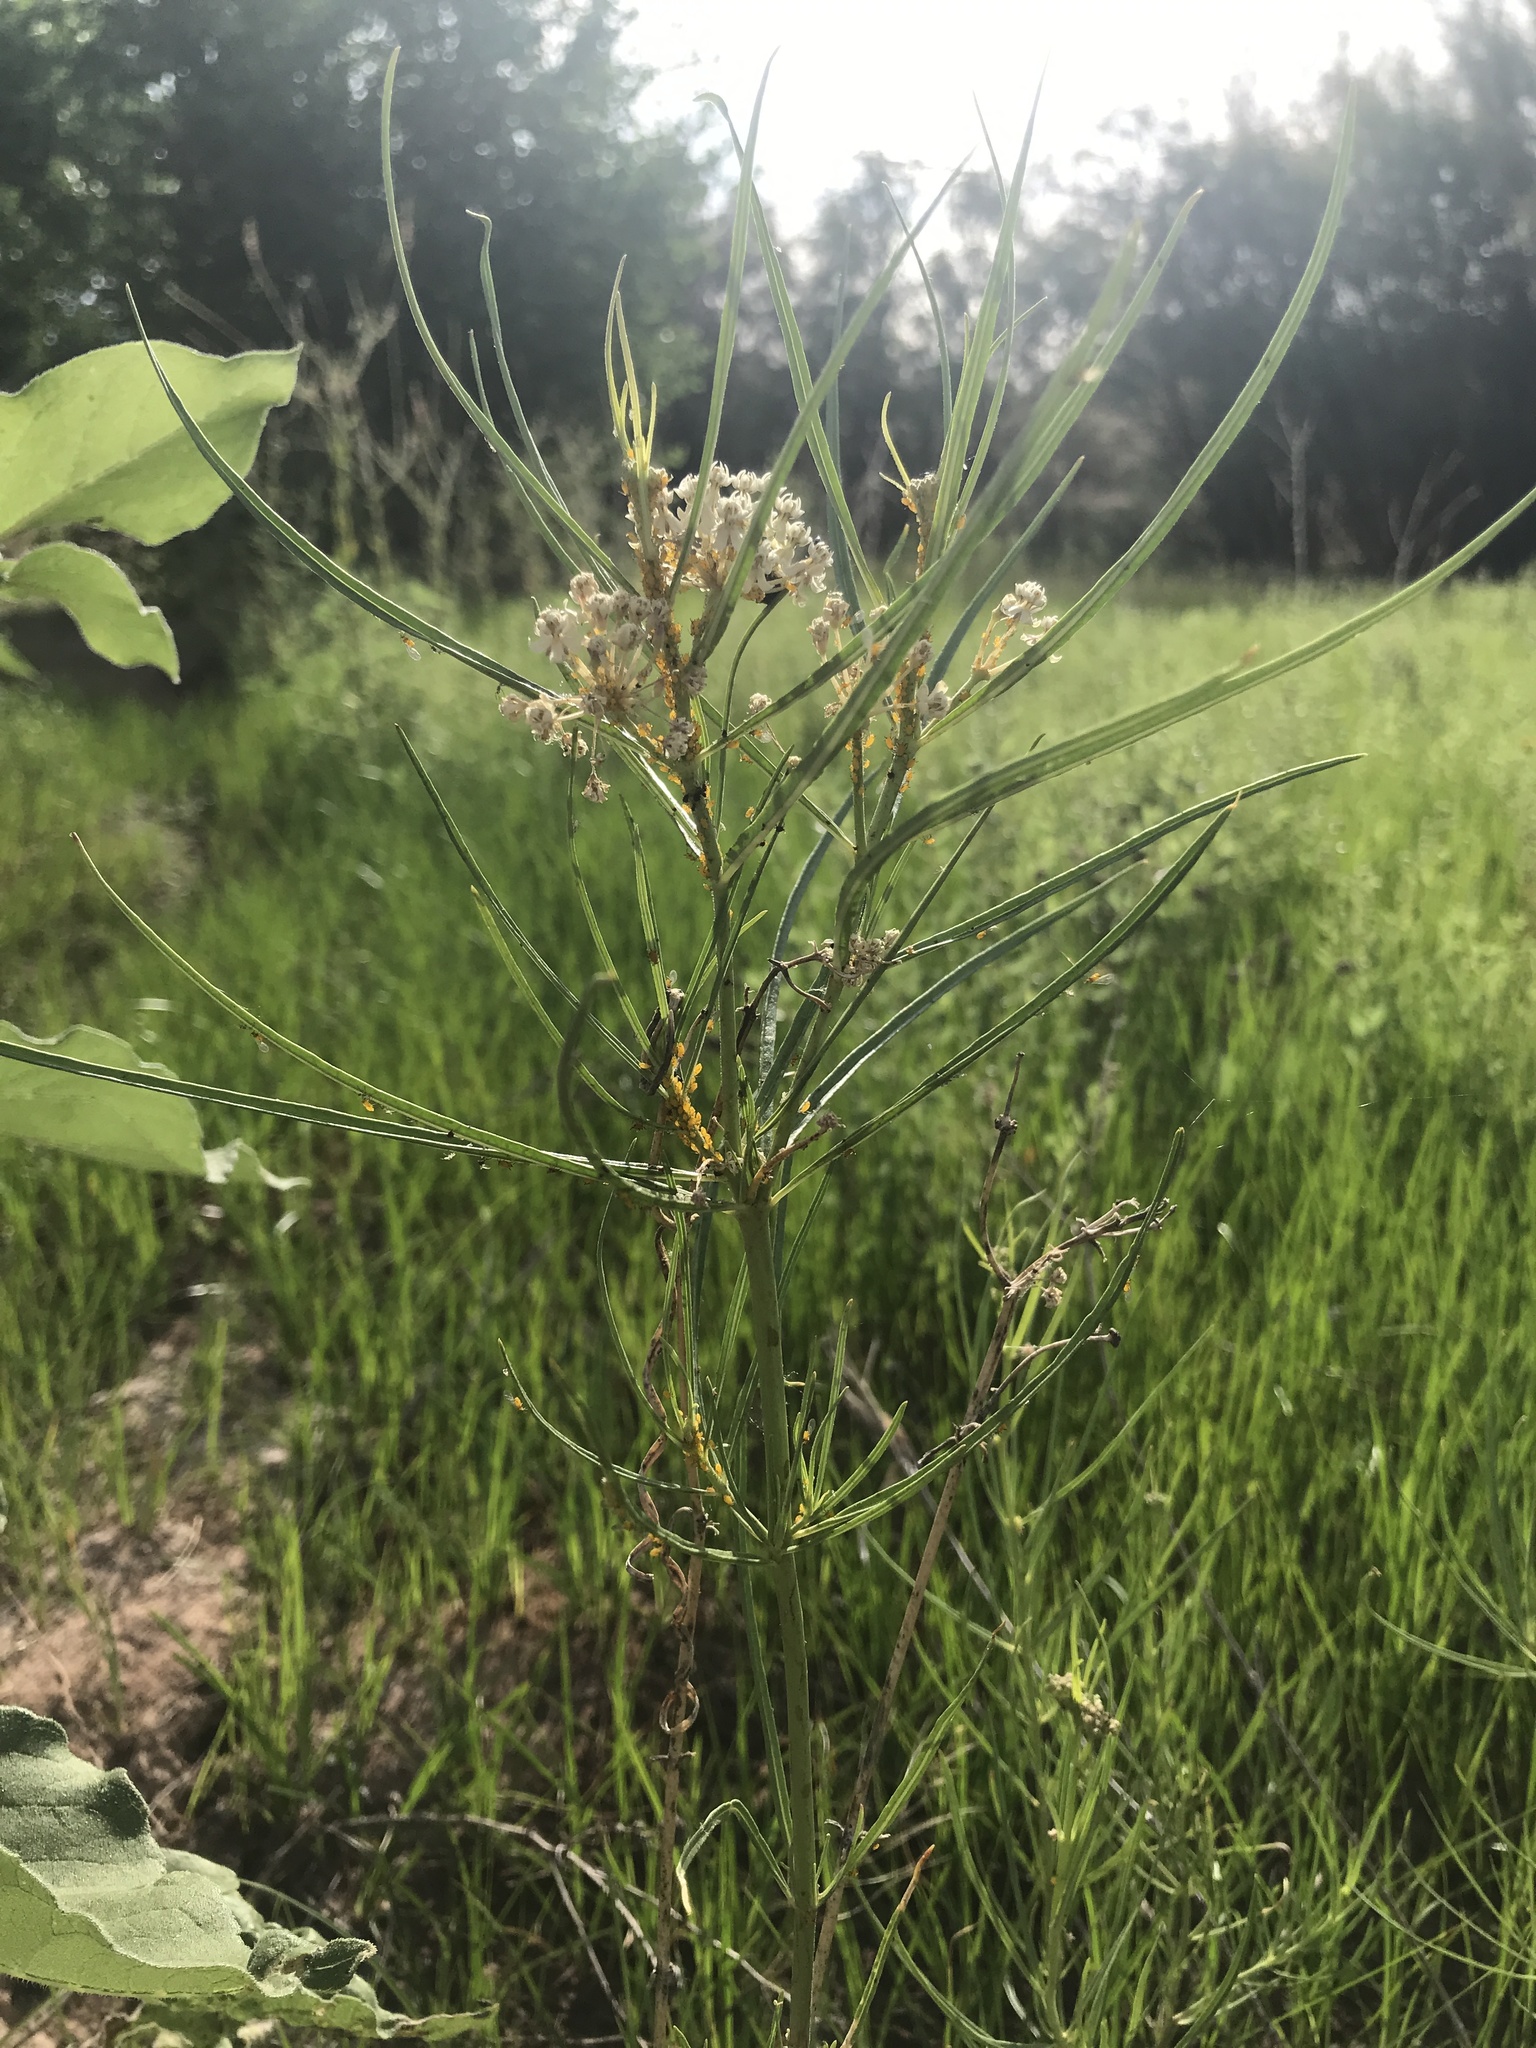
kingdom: Plantae
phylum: Tracheophyta
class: Magnoliopsida
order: Gentianales
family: Apocynaceae
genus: Asclepias
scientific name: Asclepias subverticillata
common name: Horsetail milkweed
